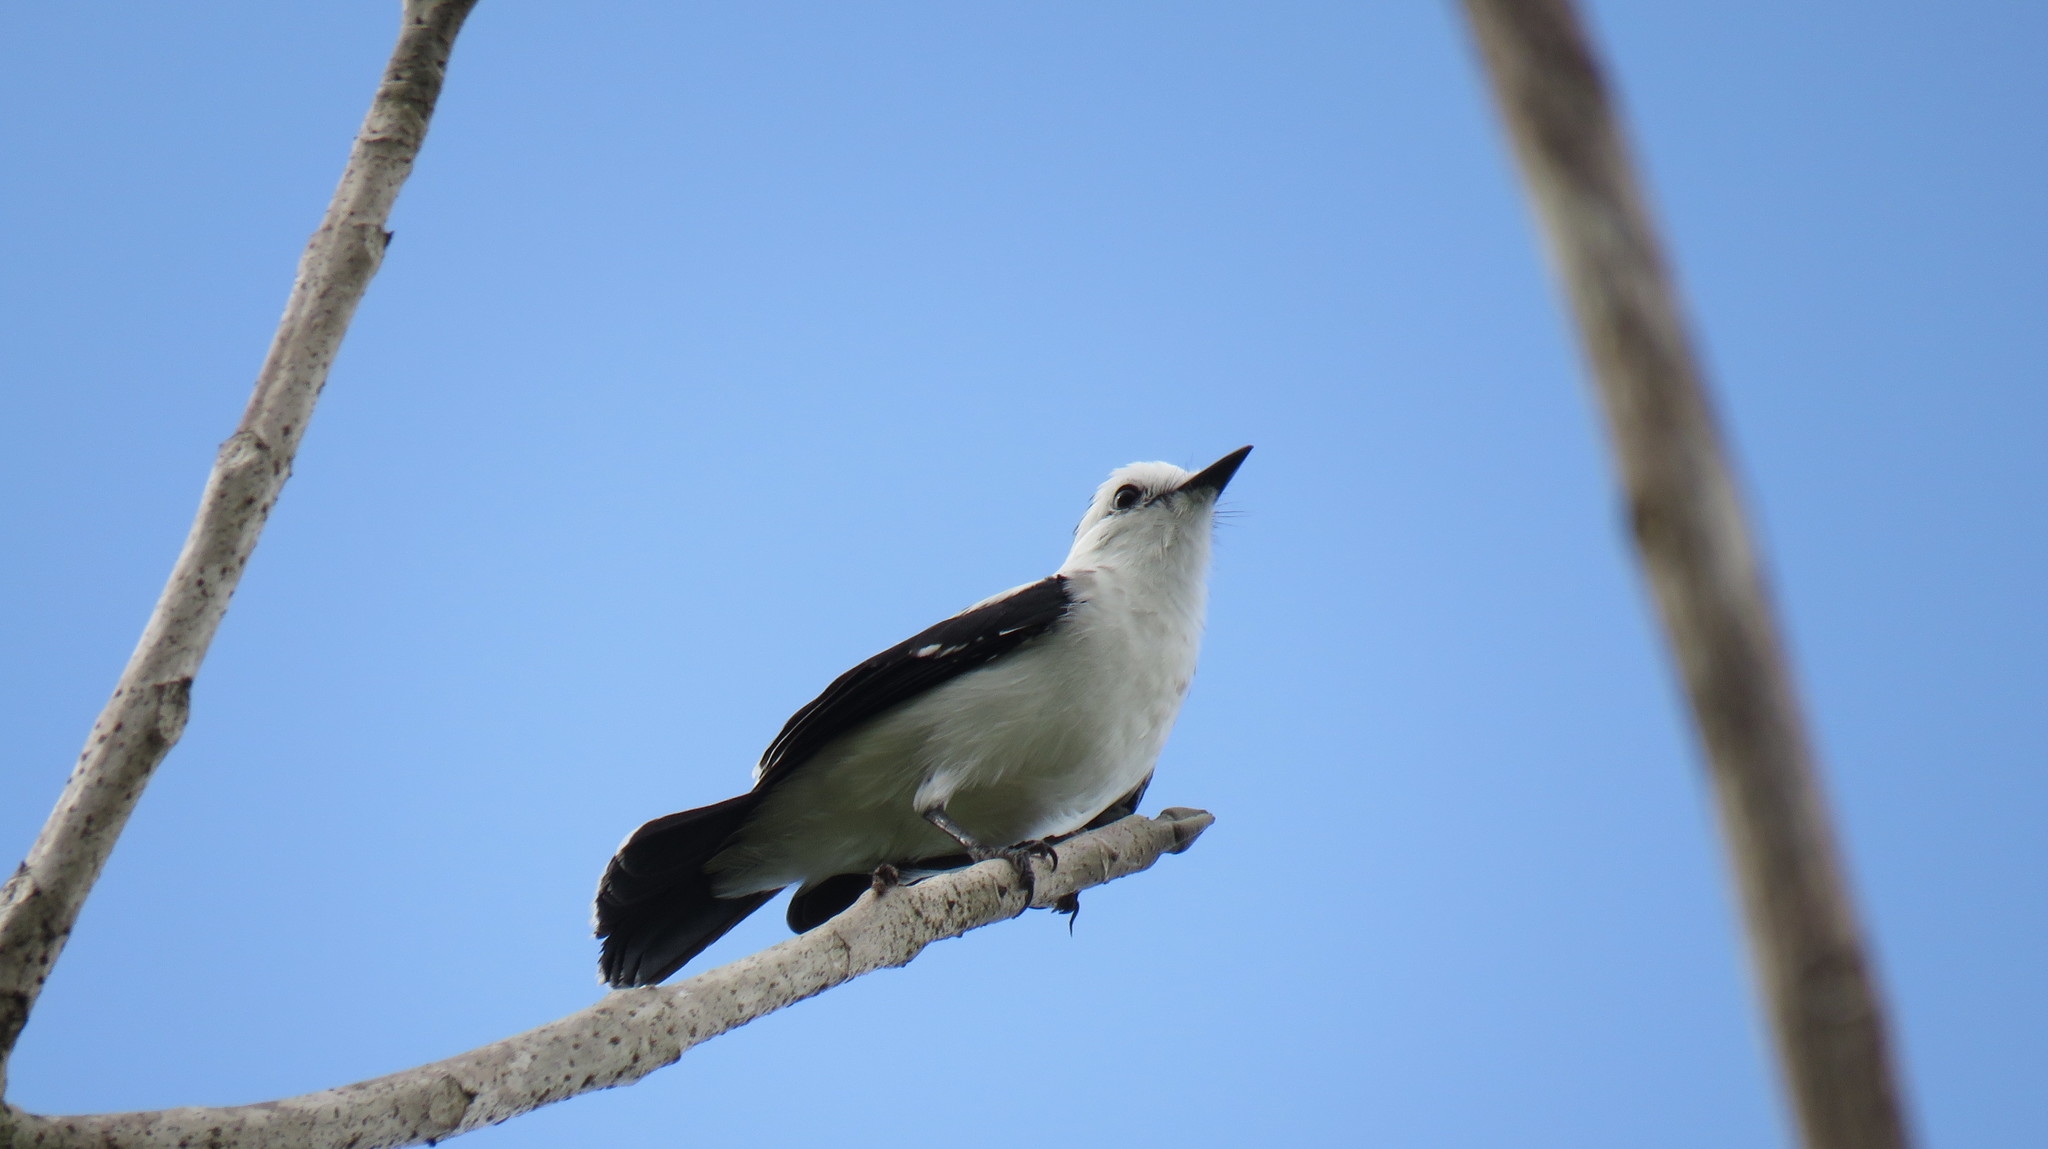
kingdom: Animalia
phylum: Chordata
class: Aves
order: Passeriformes
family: Tyrannidae
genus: Fluvicola
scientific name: Fluvicola pica
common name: Pied water-tyrant
